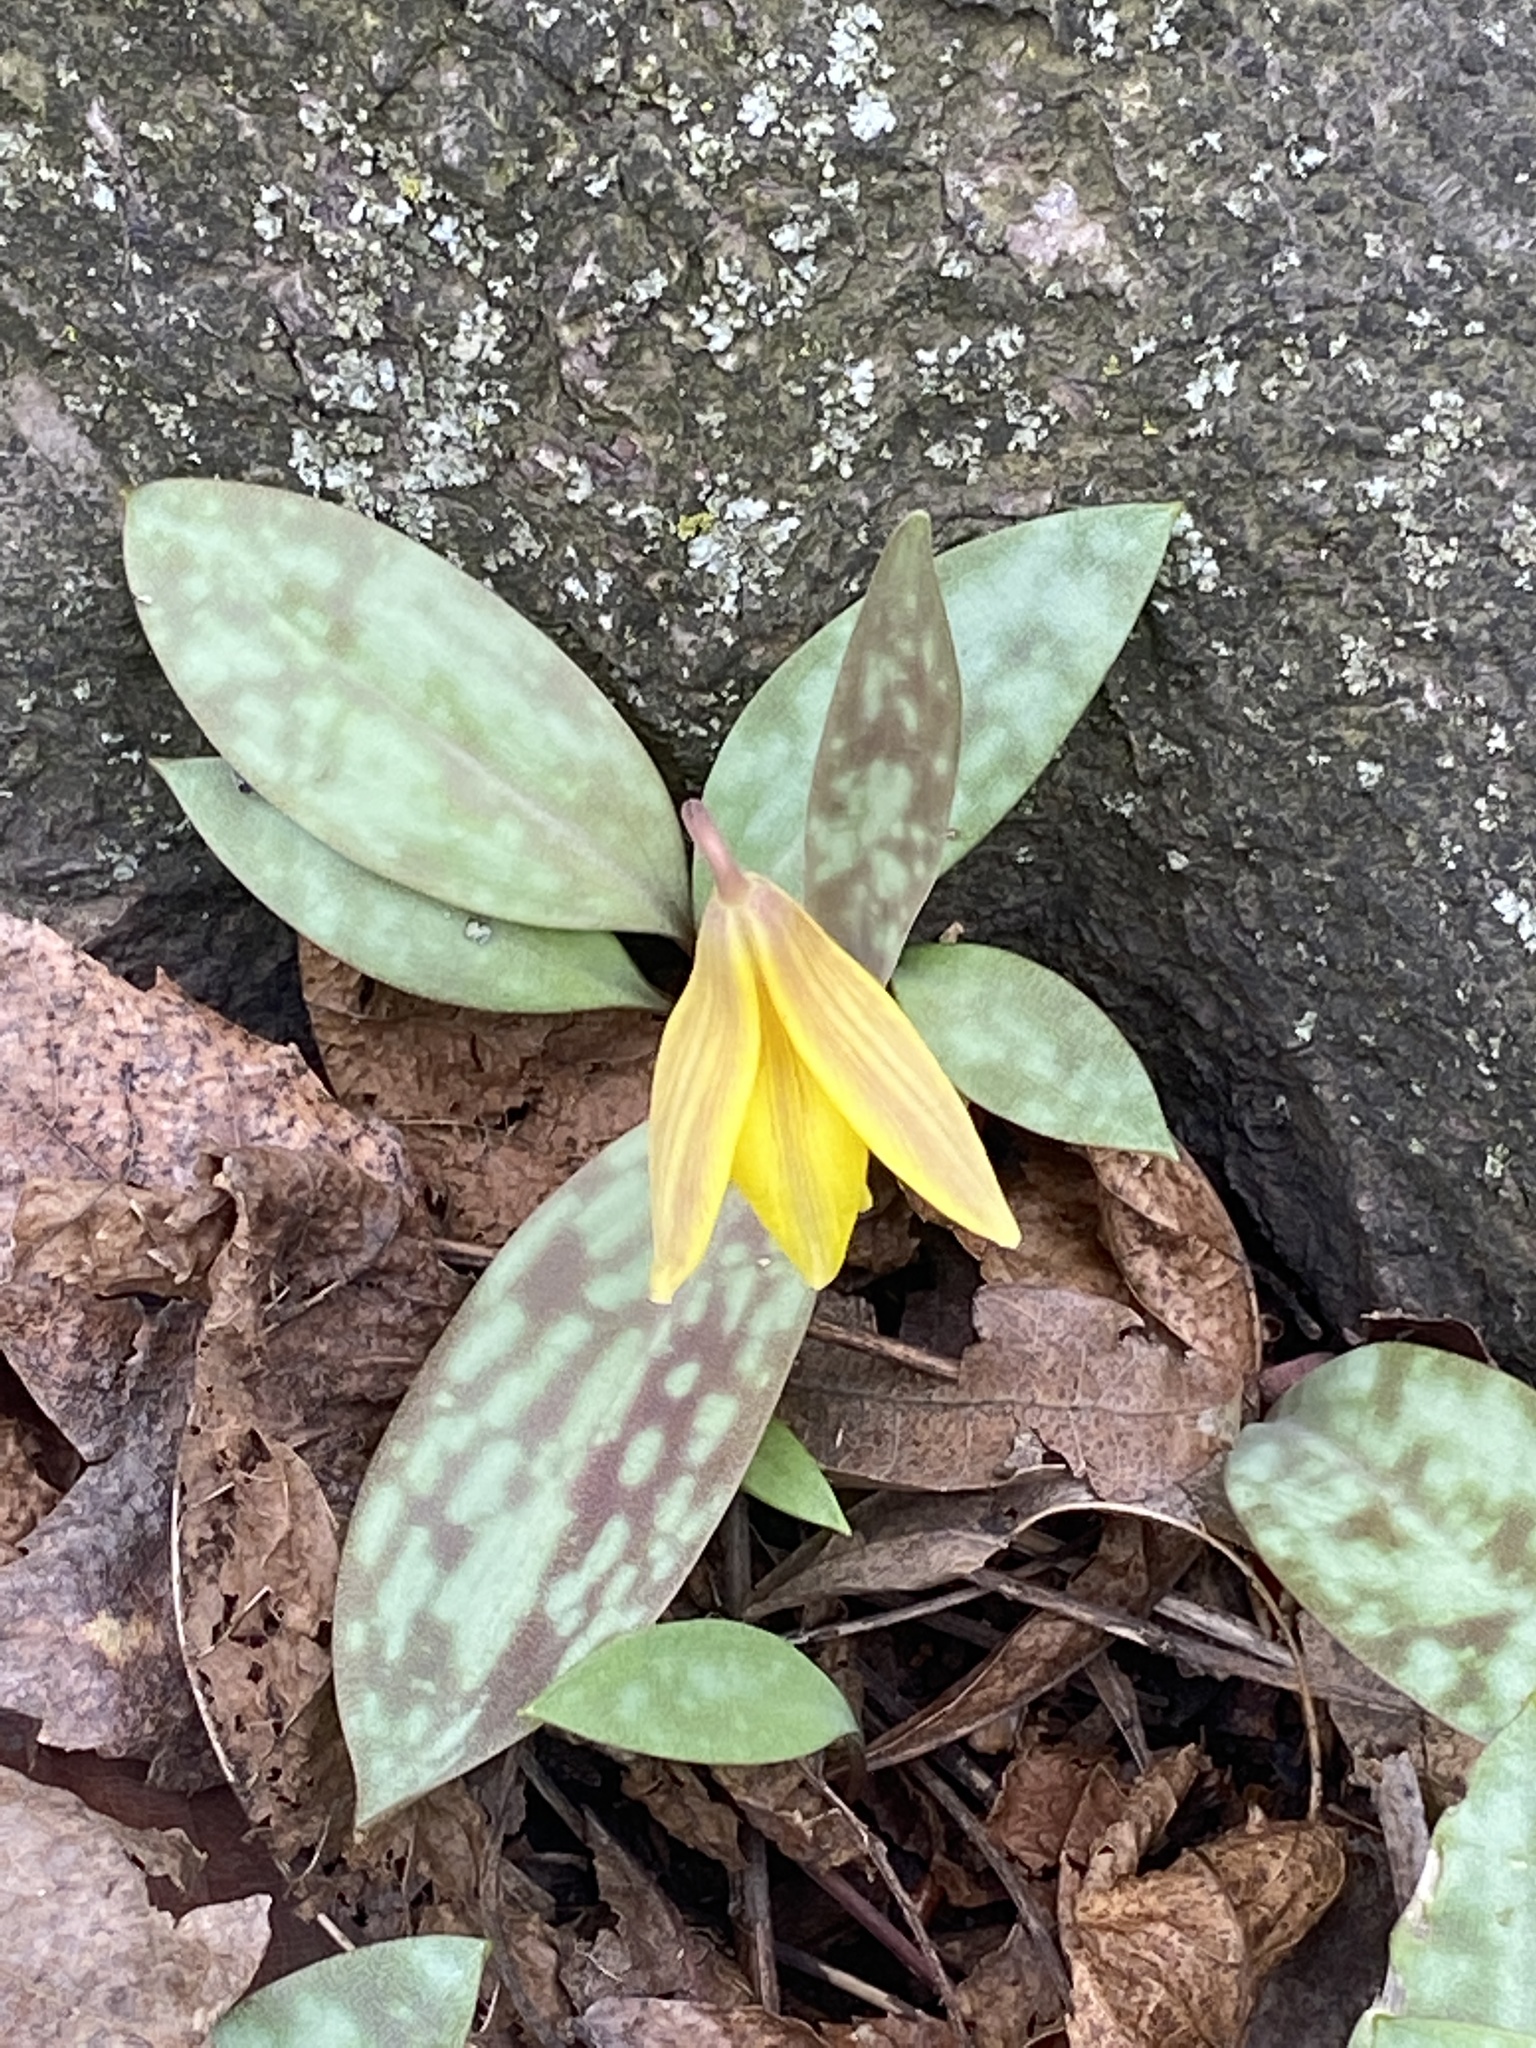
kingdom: Plantae
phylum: Tracheophyta
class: Liliopsida
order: Liliales
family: Liliaceae
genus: Erythronium
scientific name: Erythronium americanum
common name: Yellow adder's-tongue
